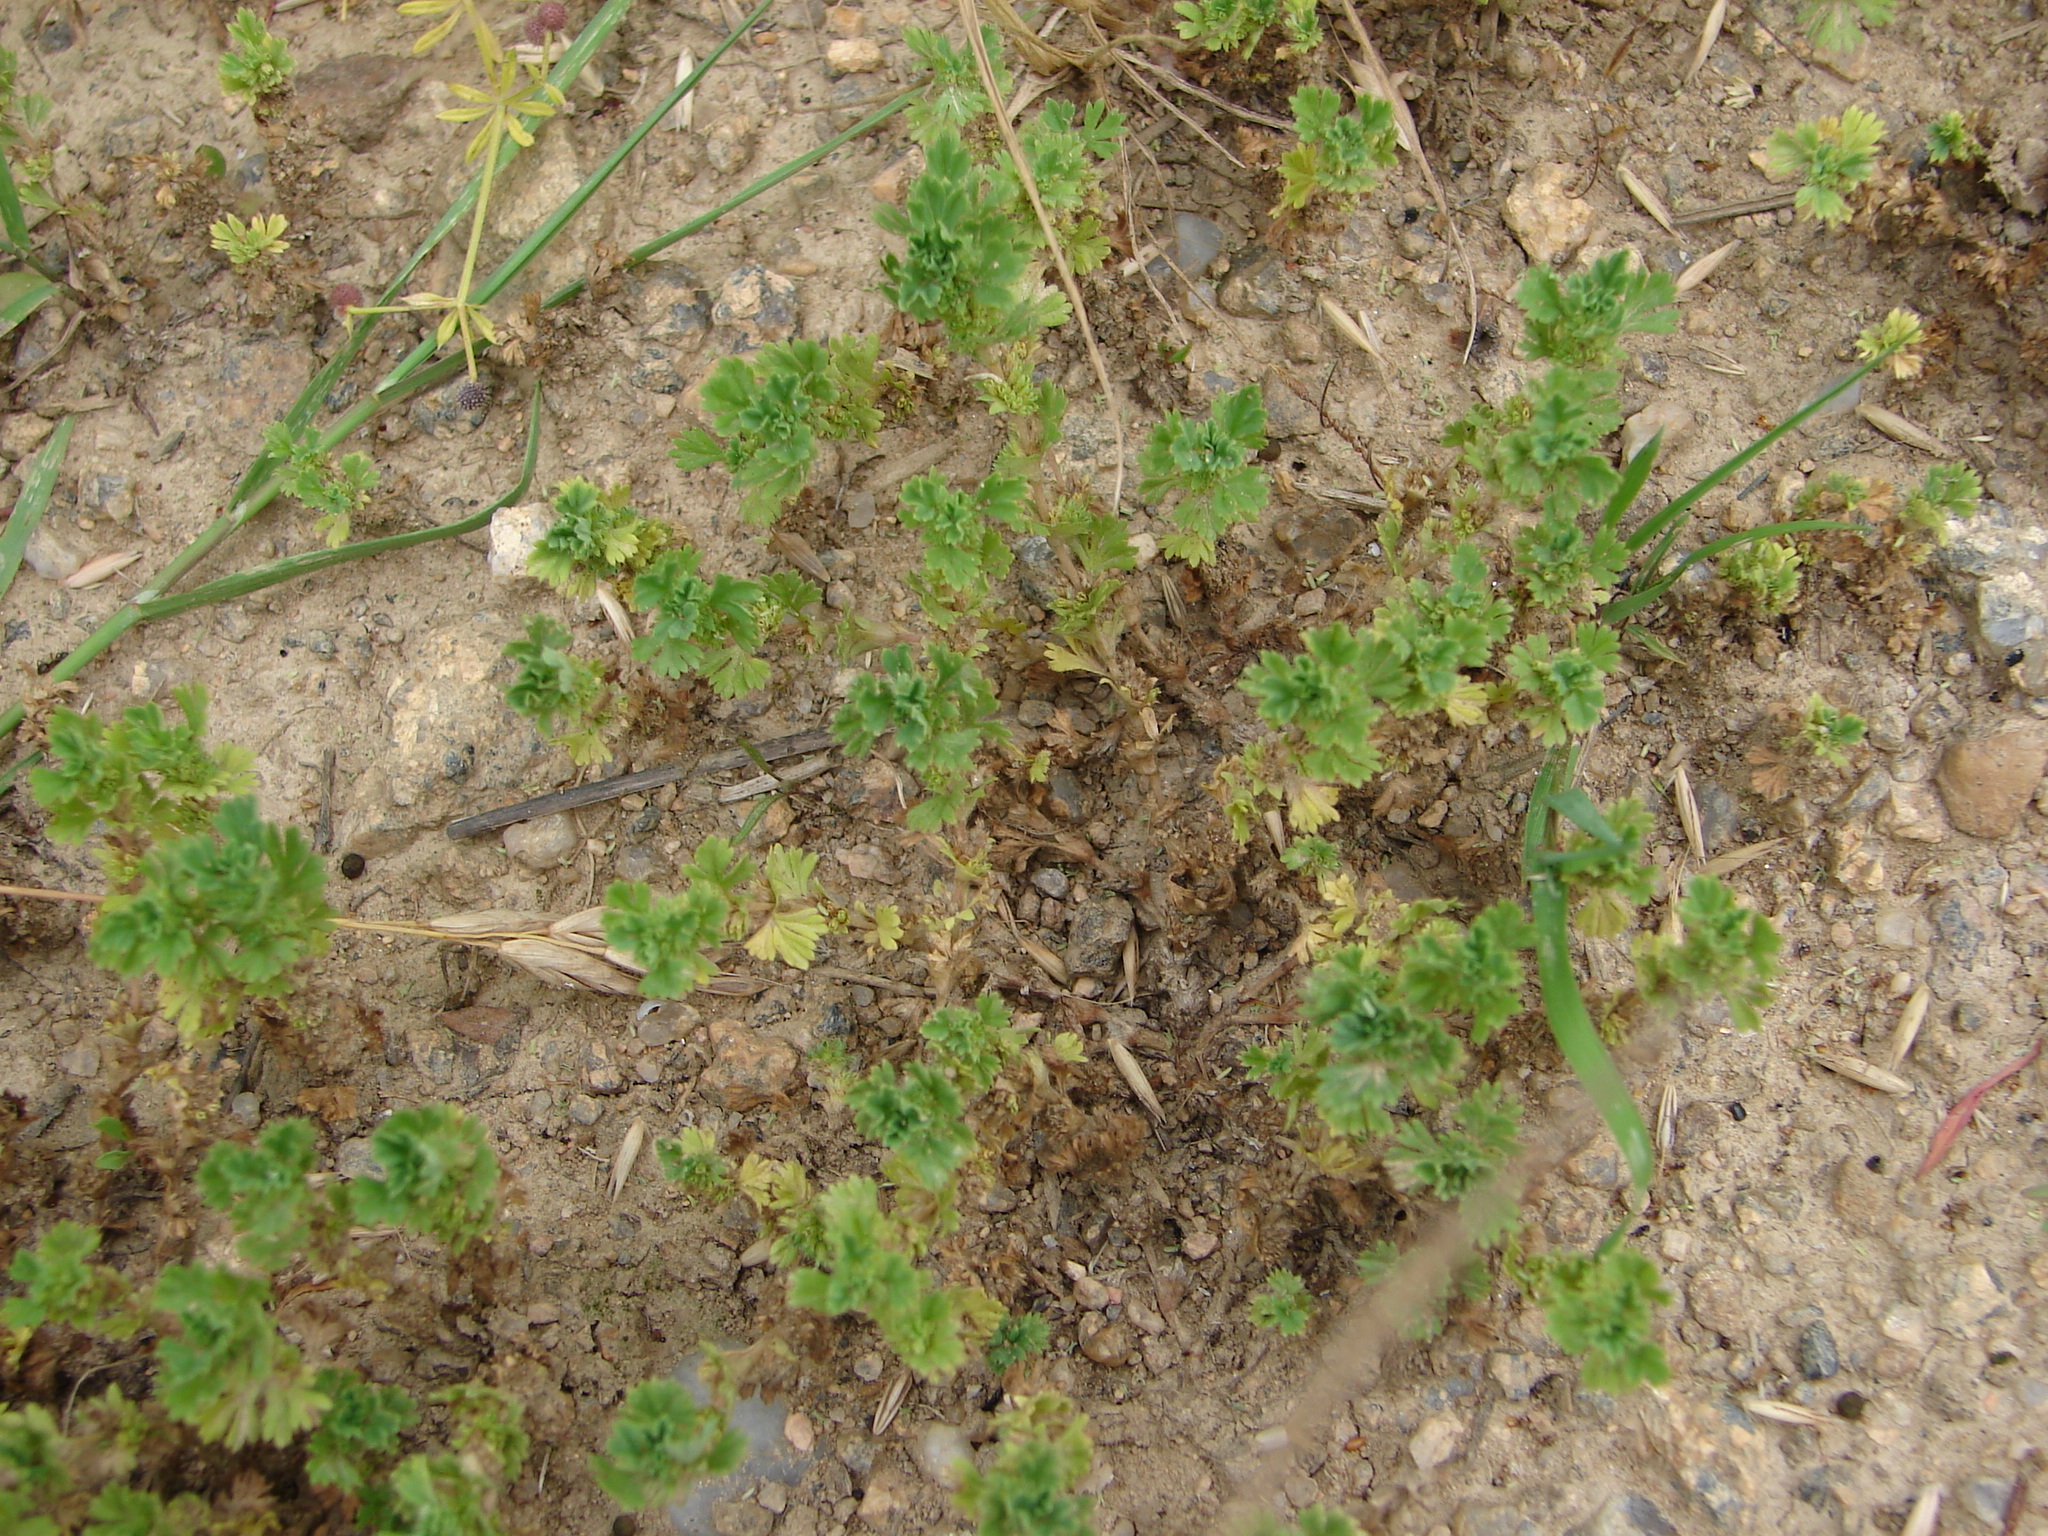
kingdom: Plantae
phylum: Tracheophyta
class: Magnoliopsida
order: Rosales
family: Rosaceae
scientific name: Rosaceae
